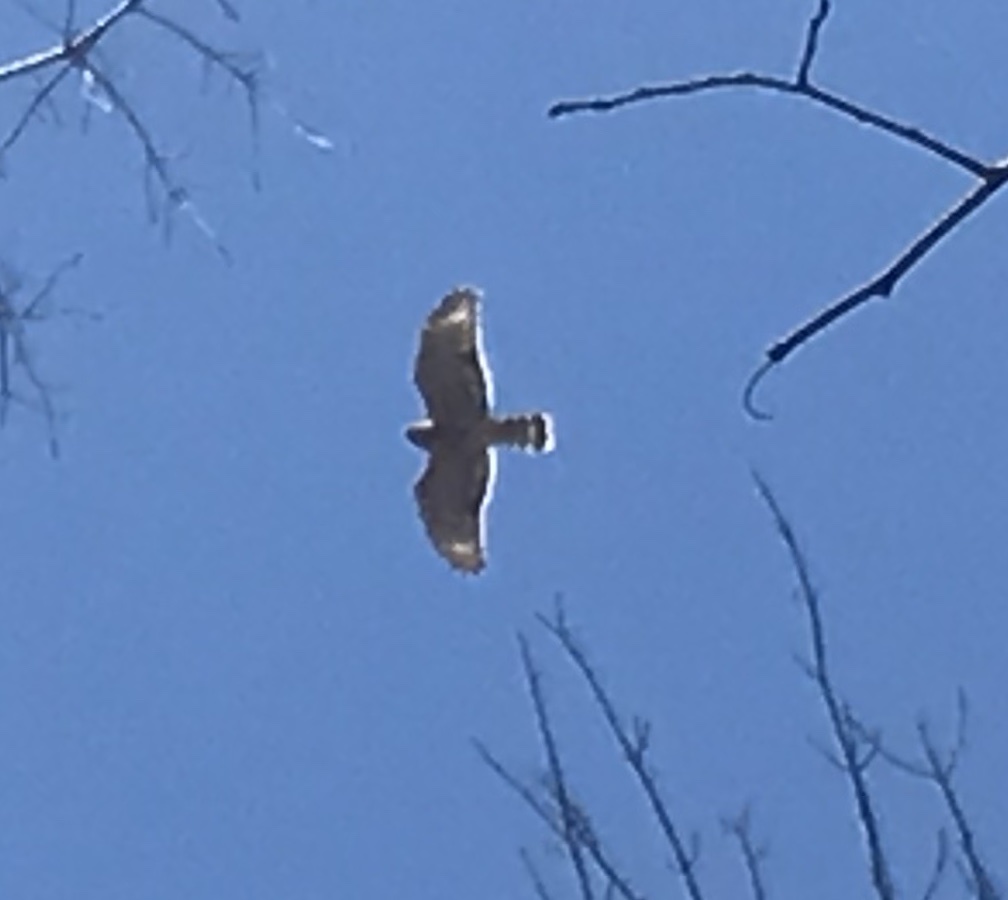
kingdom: Animalia
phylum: Chordata
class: Aves
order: Accipitriformes
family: Accipitridae
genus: Buteo
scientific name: Buteo lineatus
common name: Red-shouldered hawk
